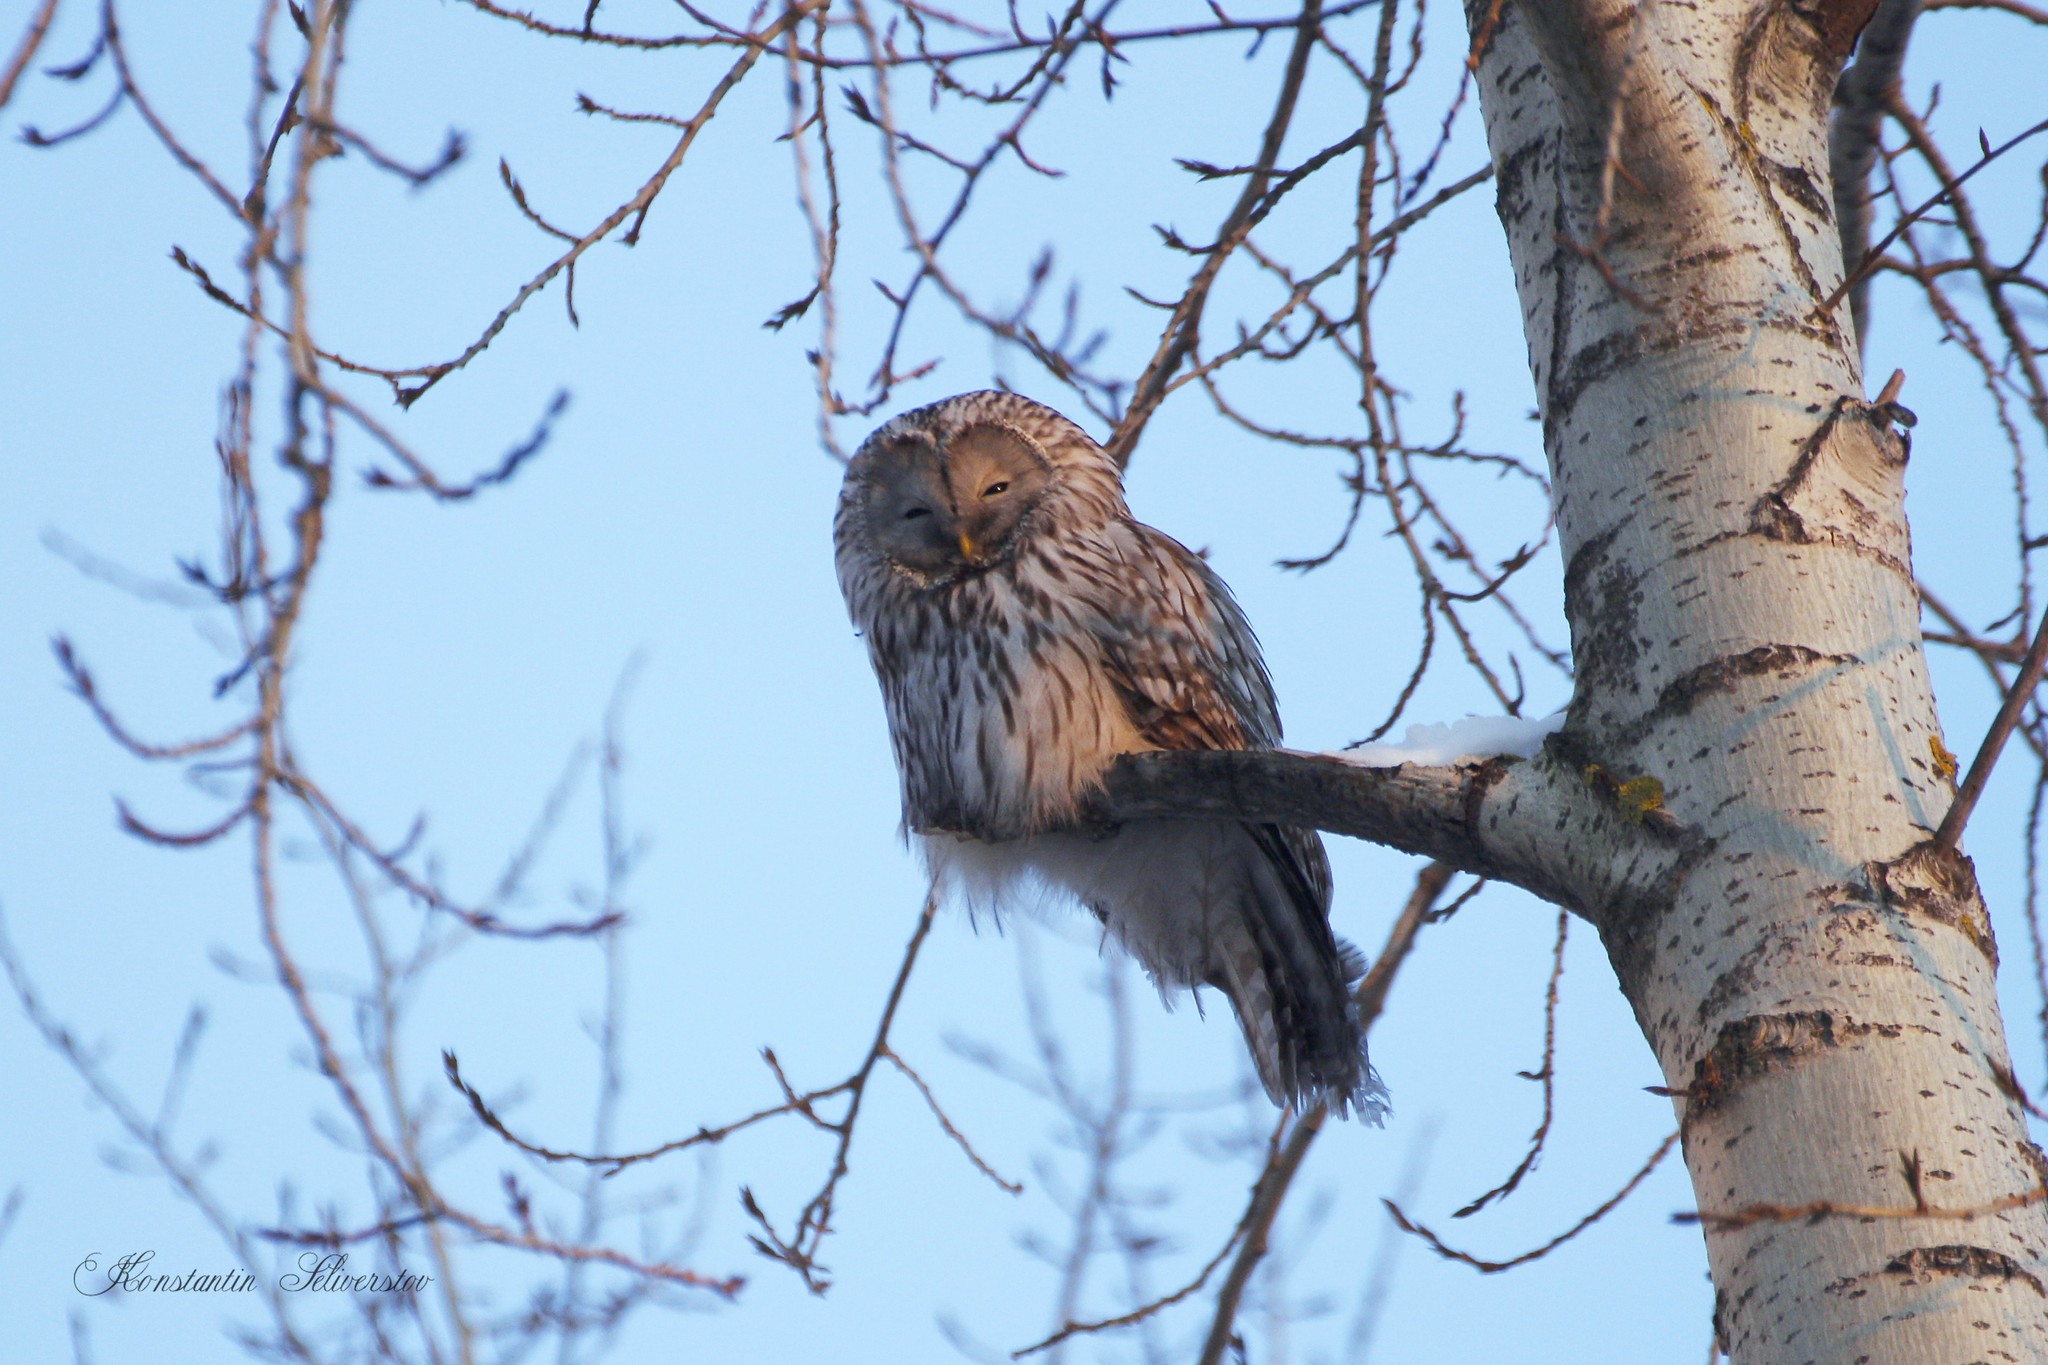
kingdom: Animalia
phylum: Chordata
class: Aves
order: Strigiformes
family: Strigidae
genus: Strix
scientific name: Strix uralensis
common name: Ural owl
